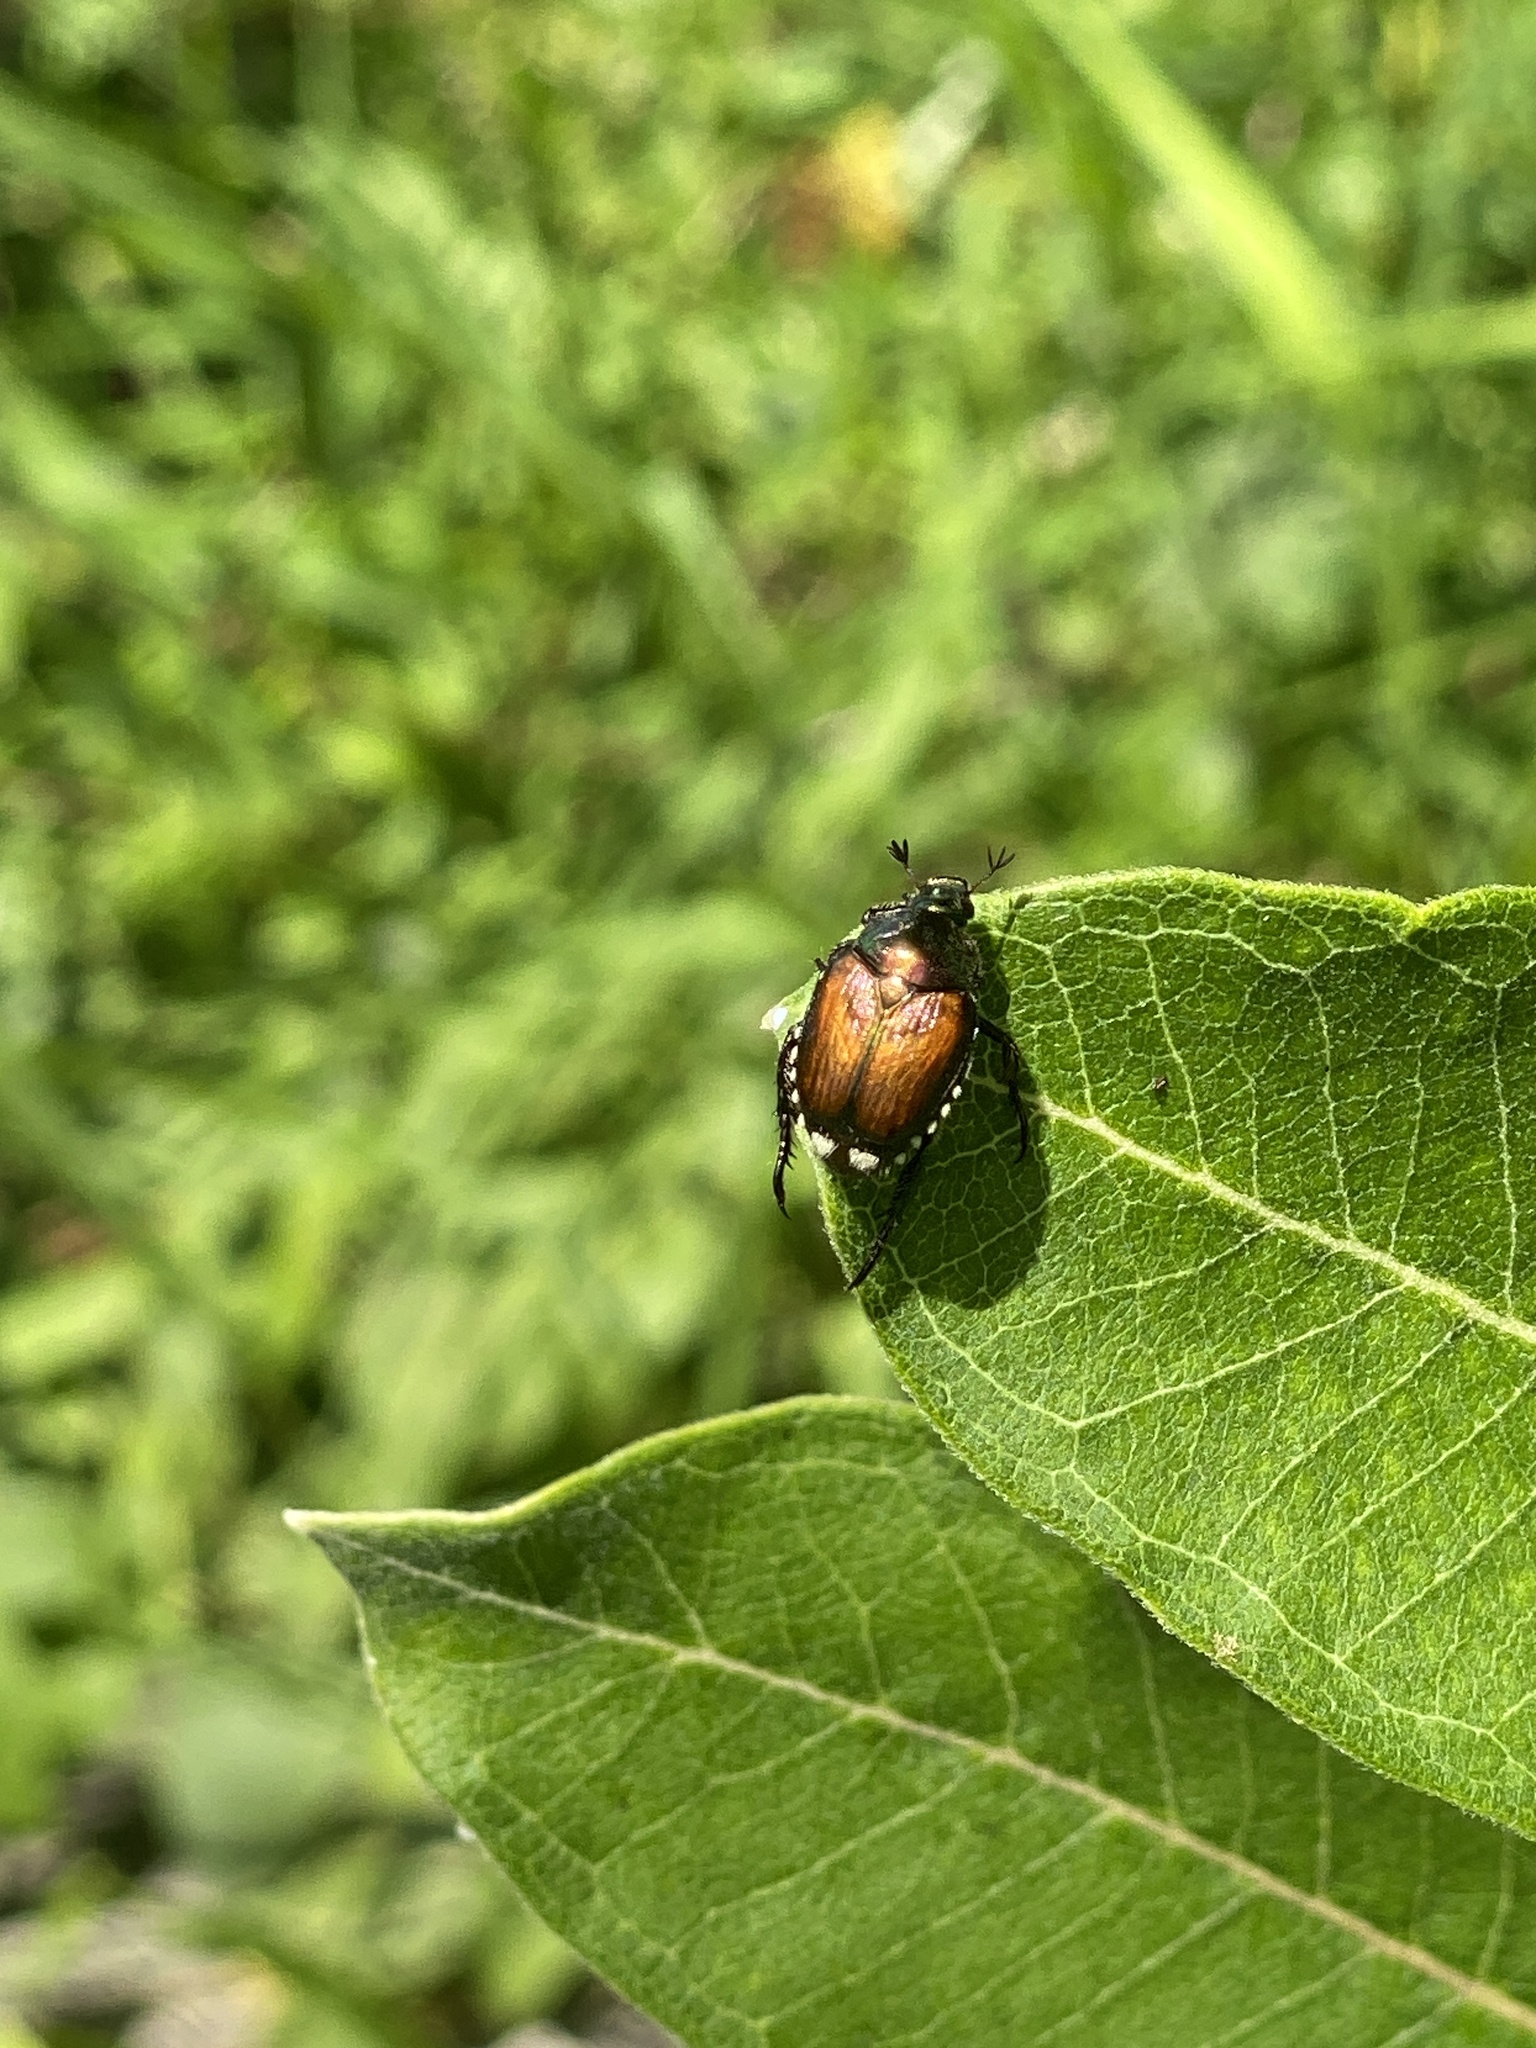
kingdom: Animalia
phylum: Arthropoda
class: Insecta
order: Coleoptera
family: Scarabaeidae
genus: Popillia
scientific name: Popillia japonica
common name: Japanese beetle
